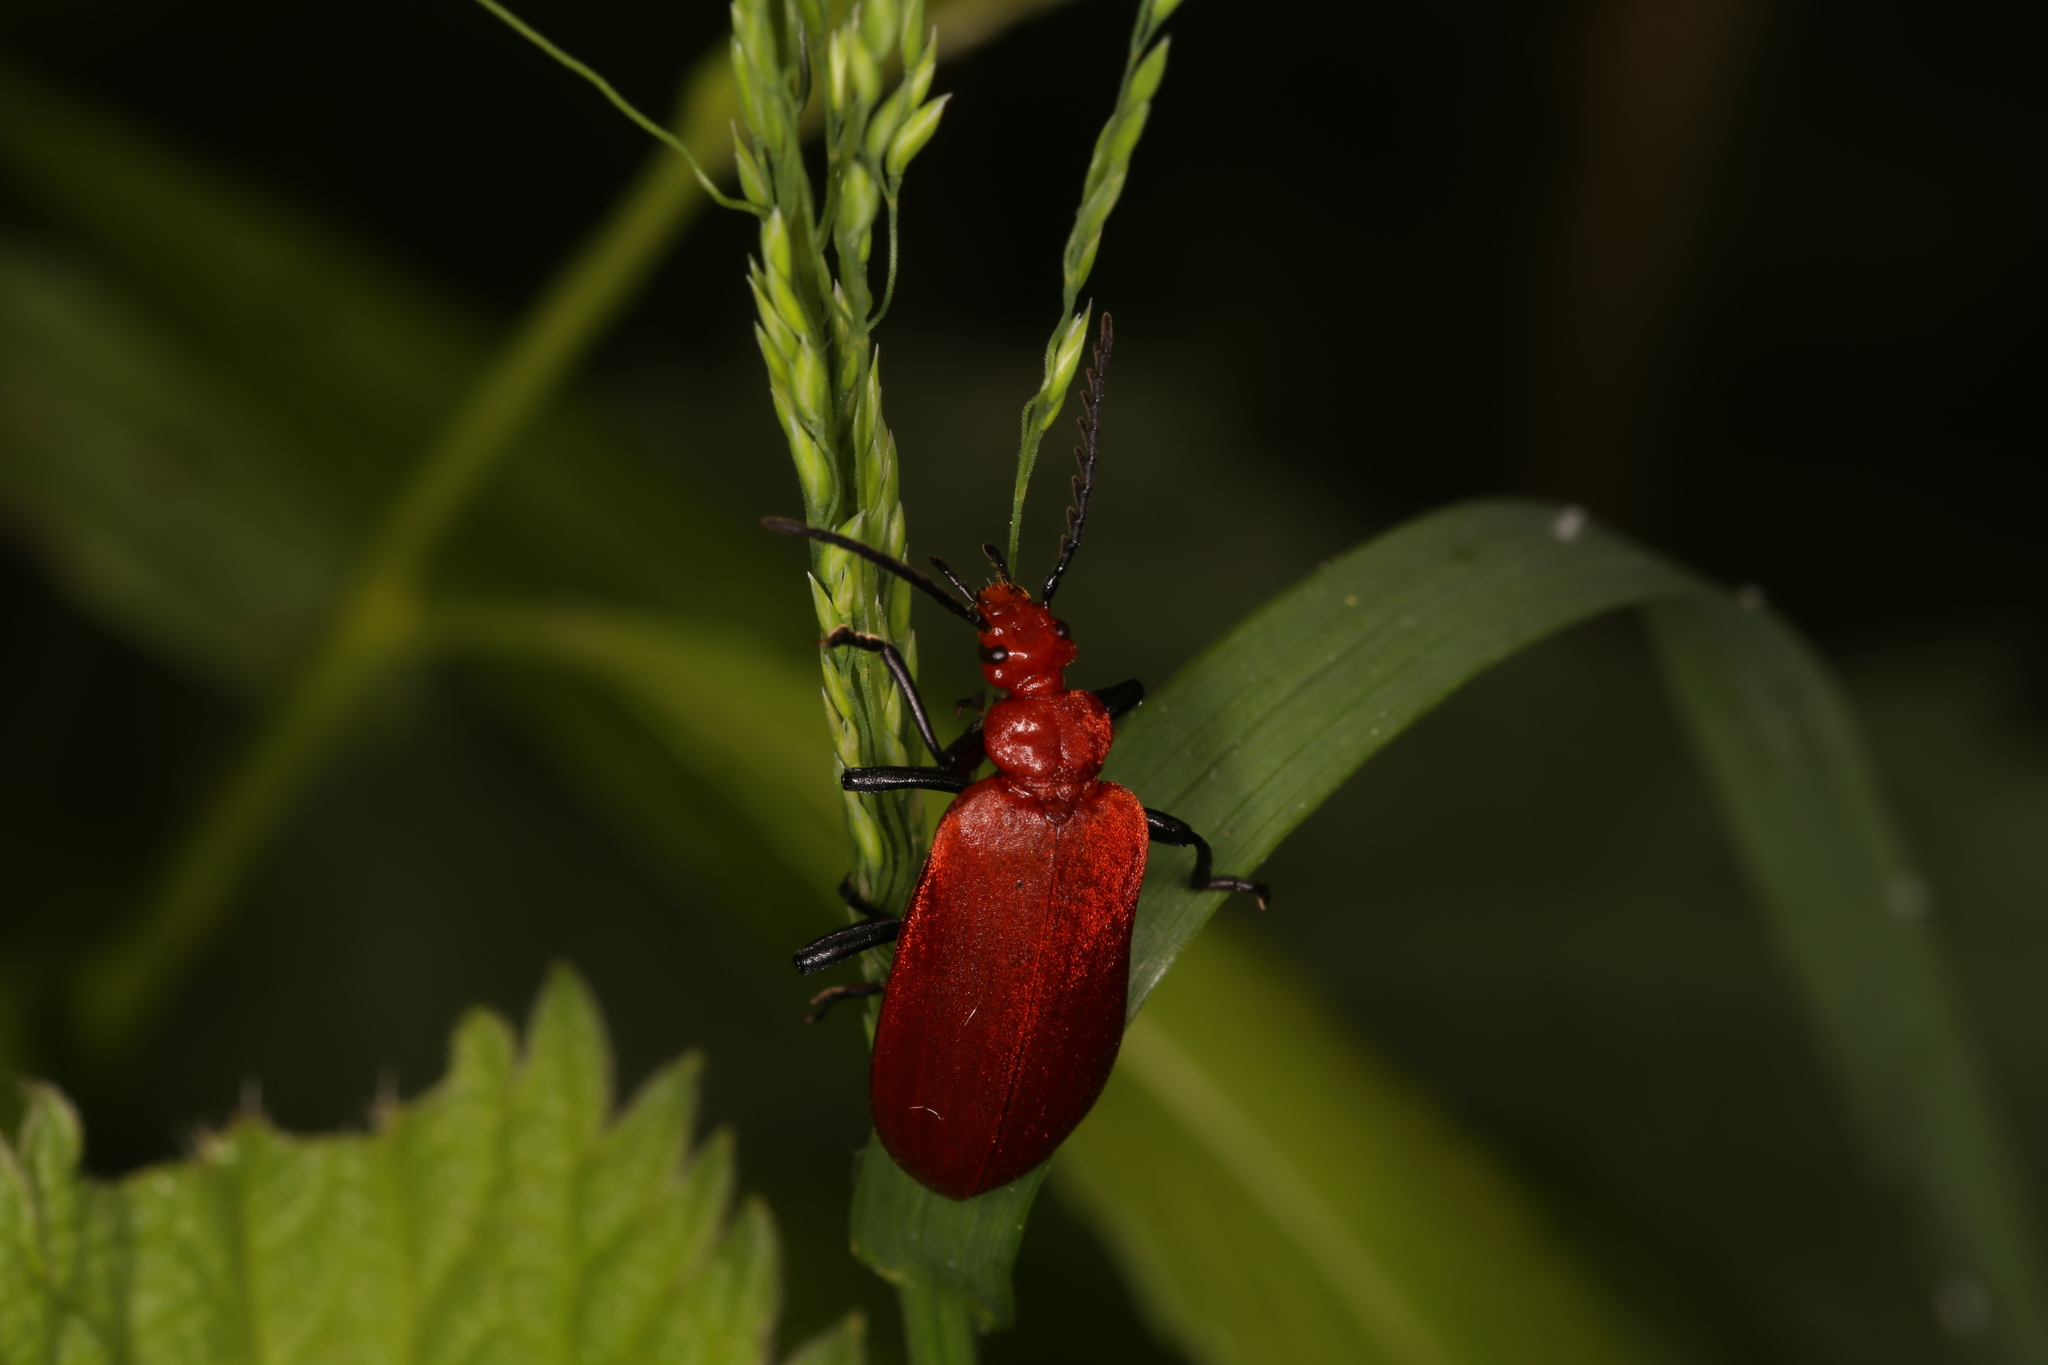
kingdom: Animalia
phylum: Arthropoda
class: Insecta
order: Coleoptera
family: Pyrochroidae
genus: Pyrochroa
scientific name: Pyrochroa serraticornis
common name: Red-headed cardinal beetle
